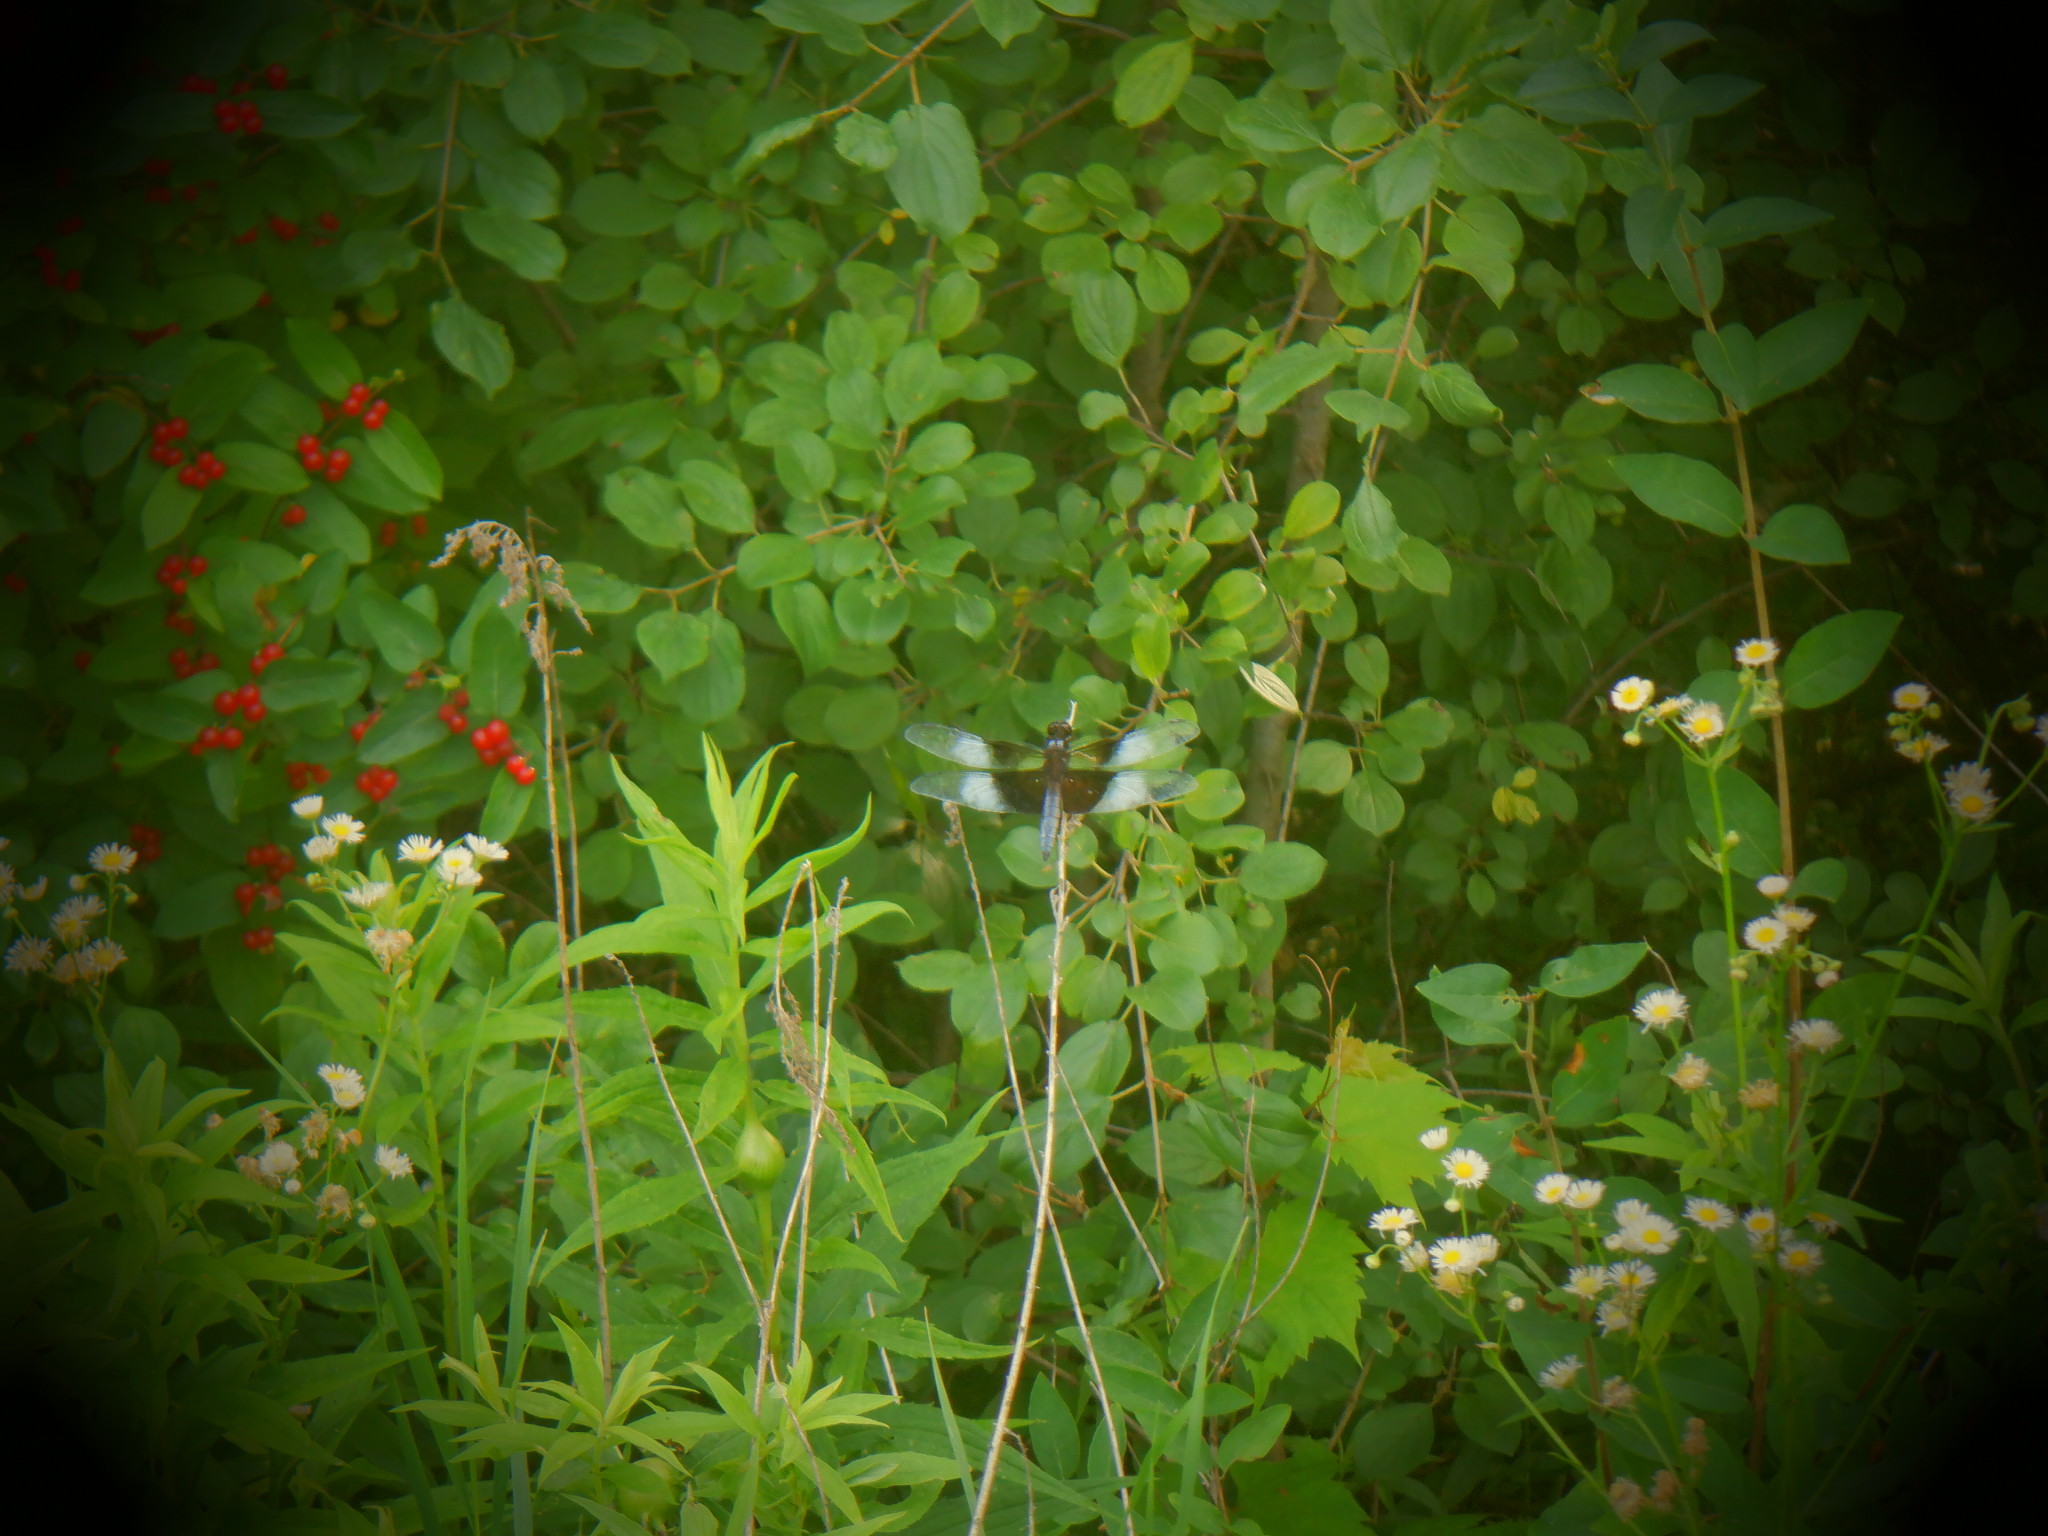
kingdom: Animalia
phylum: Arthropoda
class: Insecta
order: Odonata
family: Libellulidae
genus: Libellula
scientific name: Libellula luctuosa
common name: Widow skimmer
